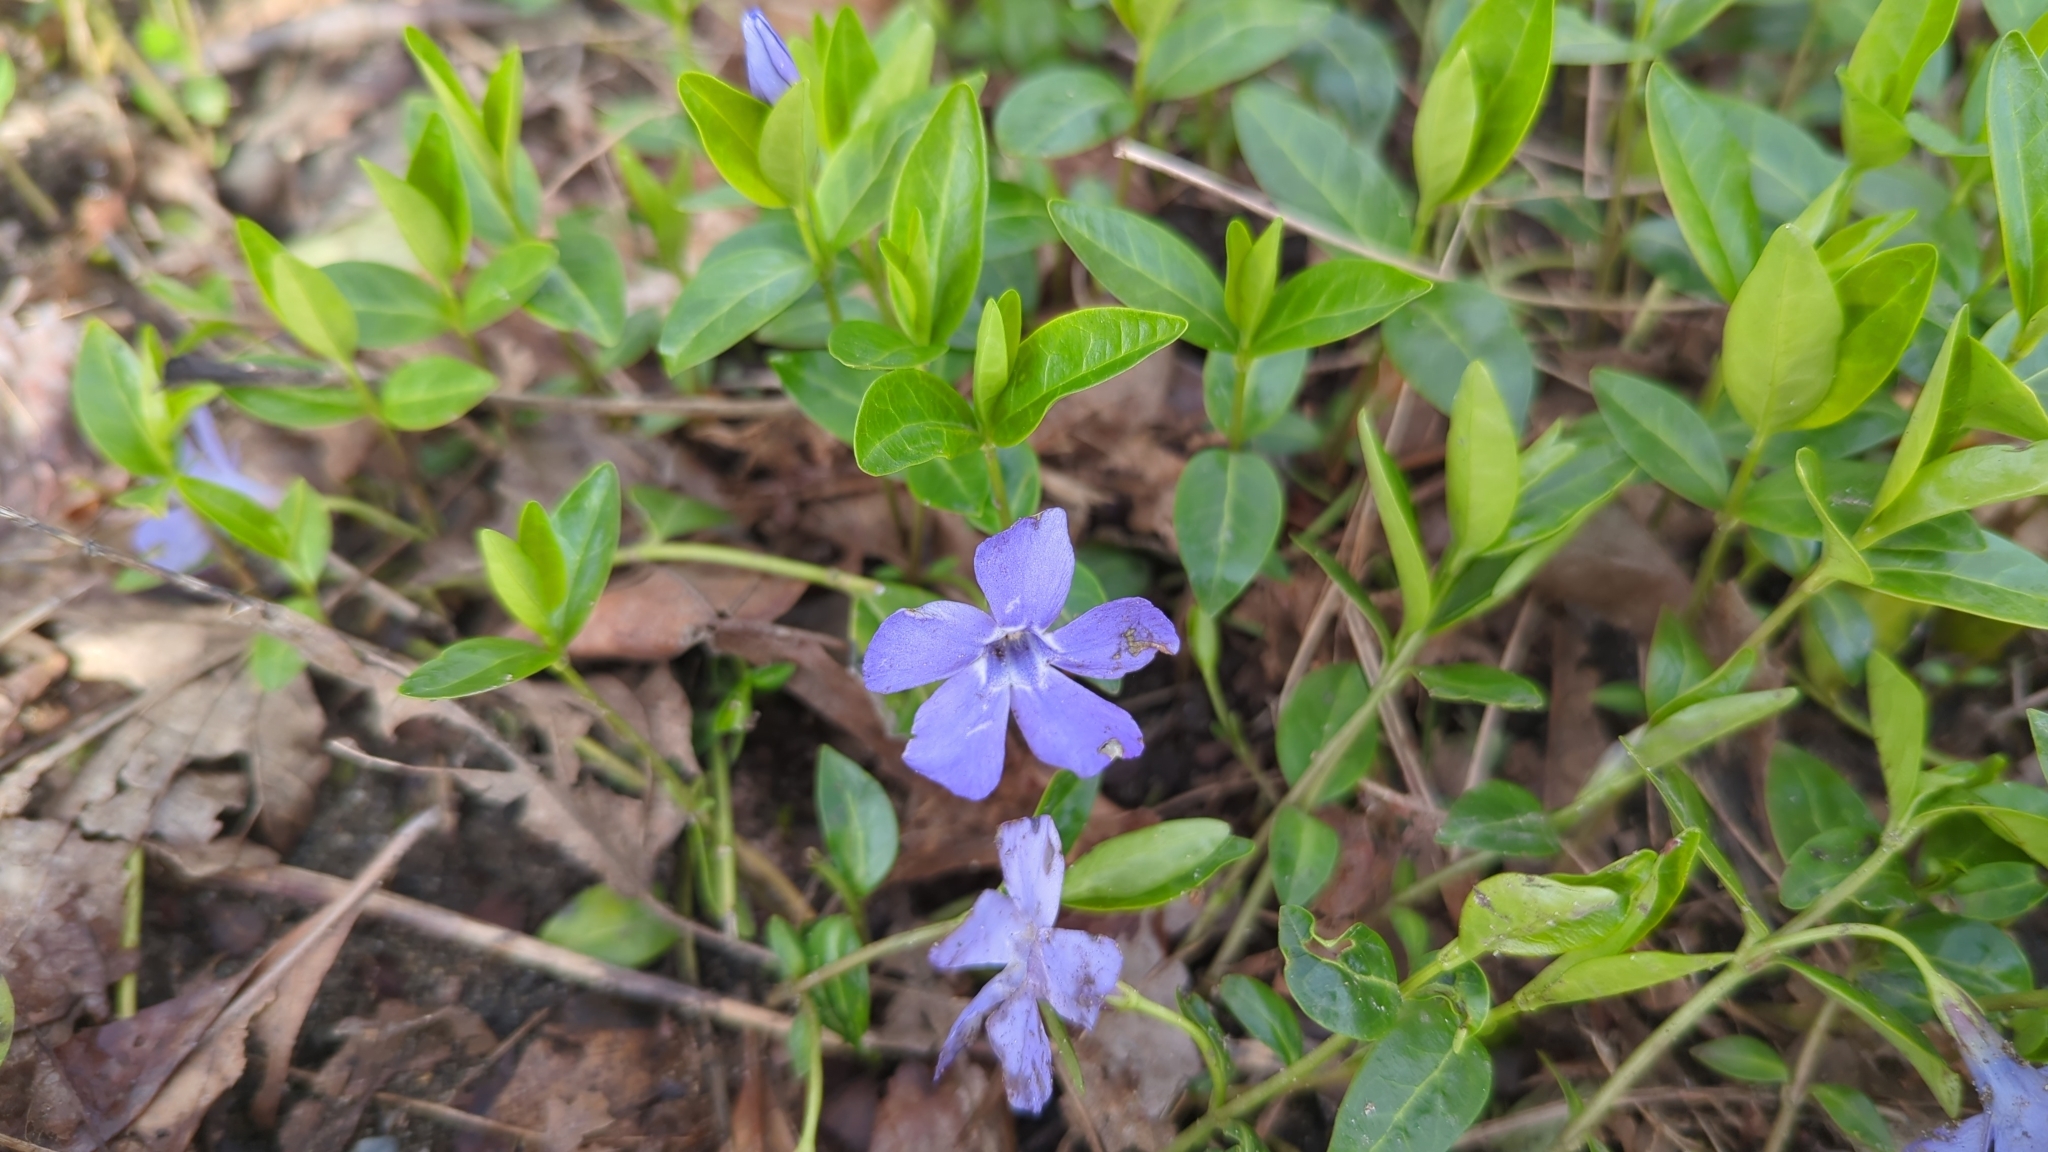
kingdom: Plantae
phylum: Tracheophyta
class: Magnoliopsida
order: Gentianales
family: Apocynaceae
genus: Vinca
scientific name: Vinca minor
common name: Lesser periwinkle
